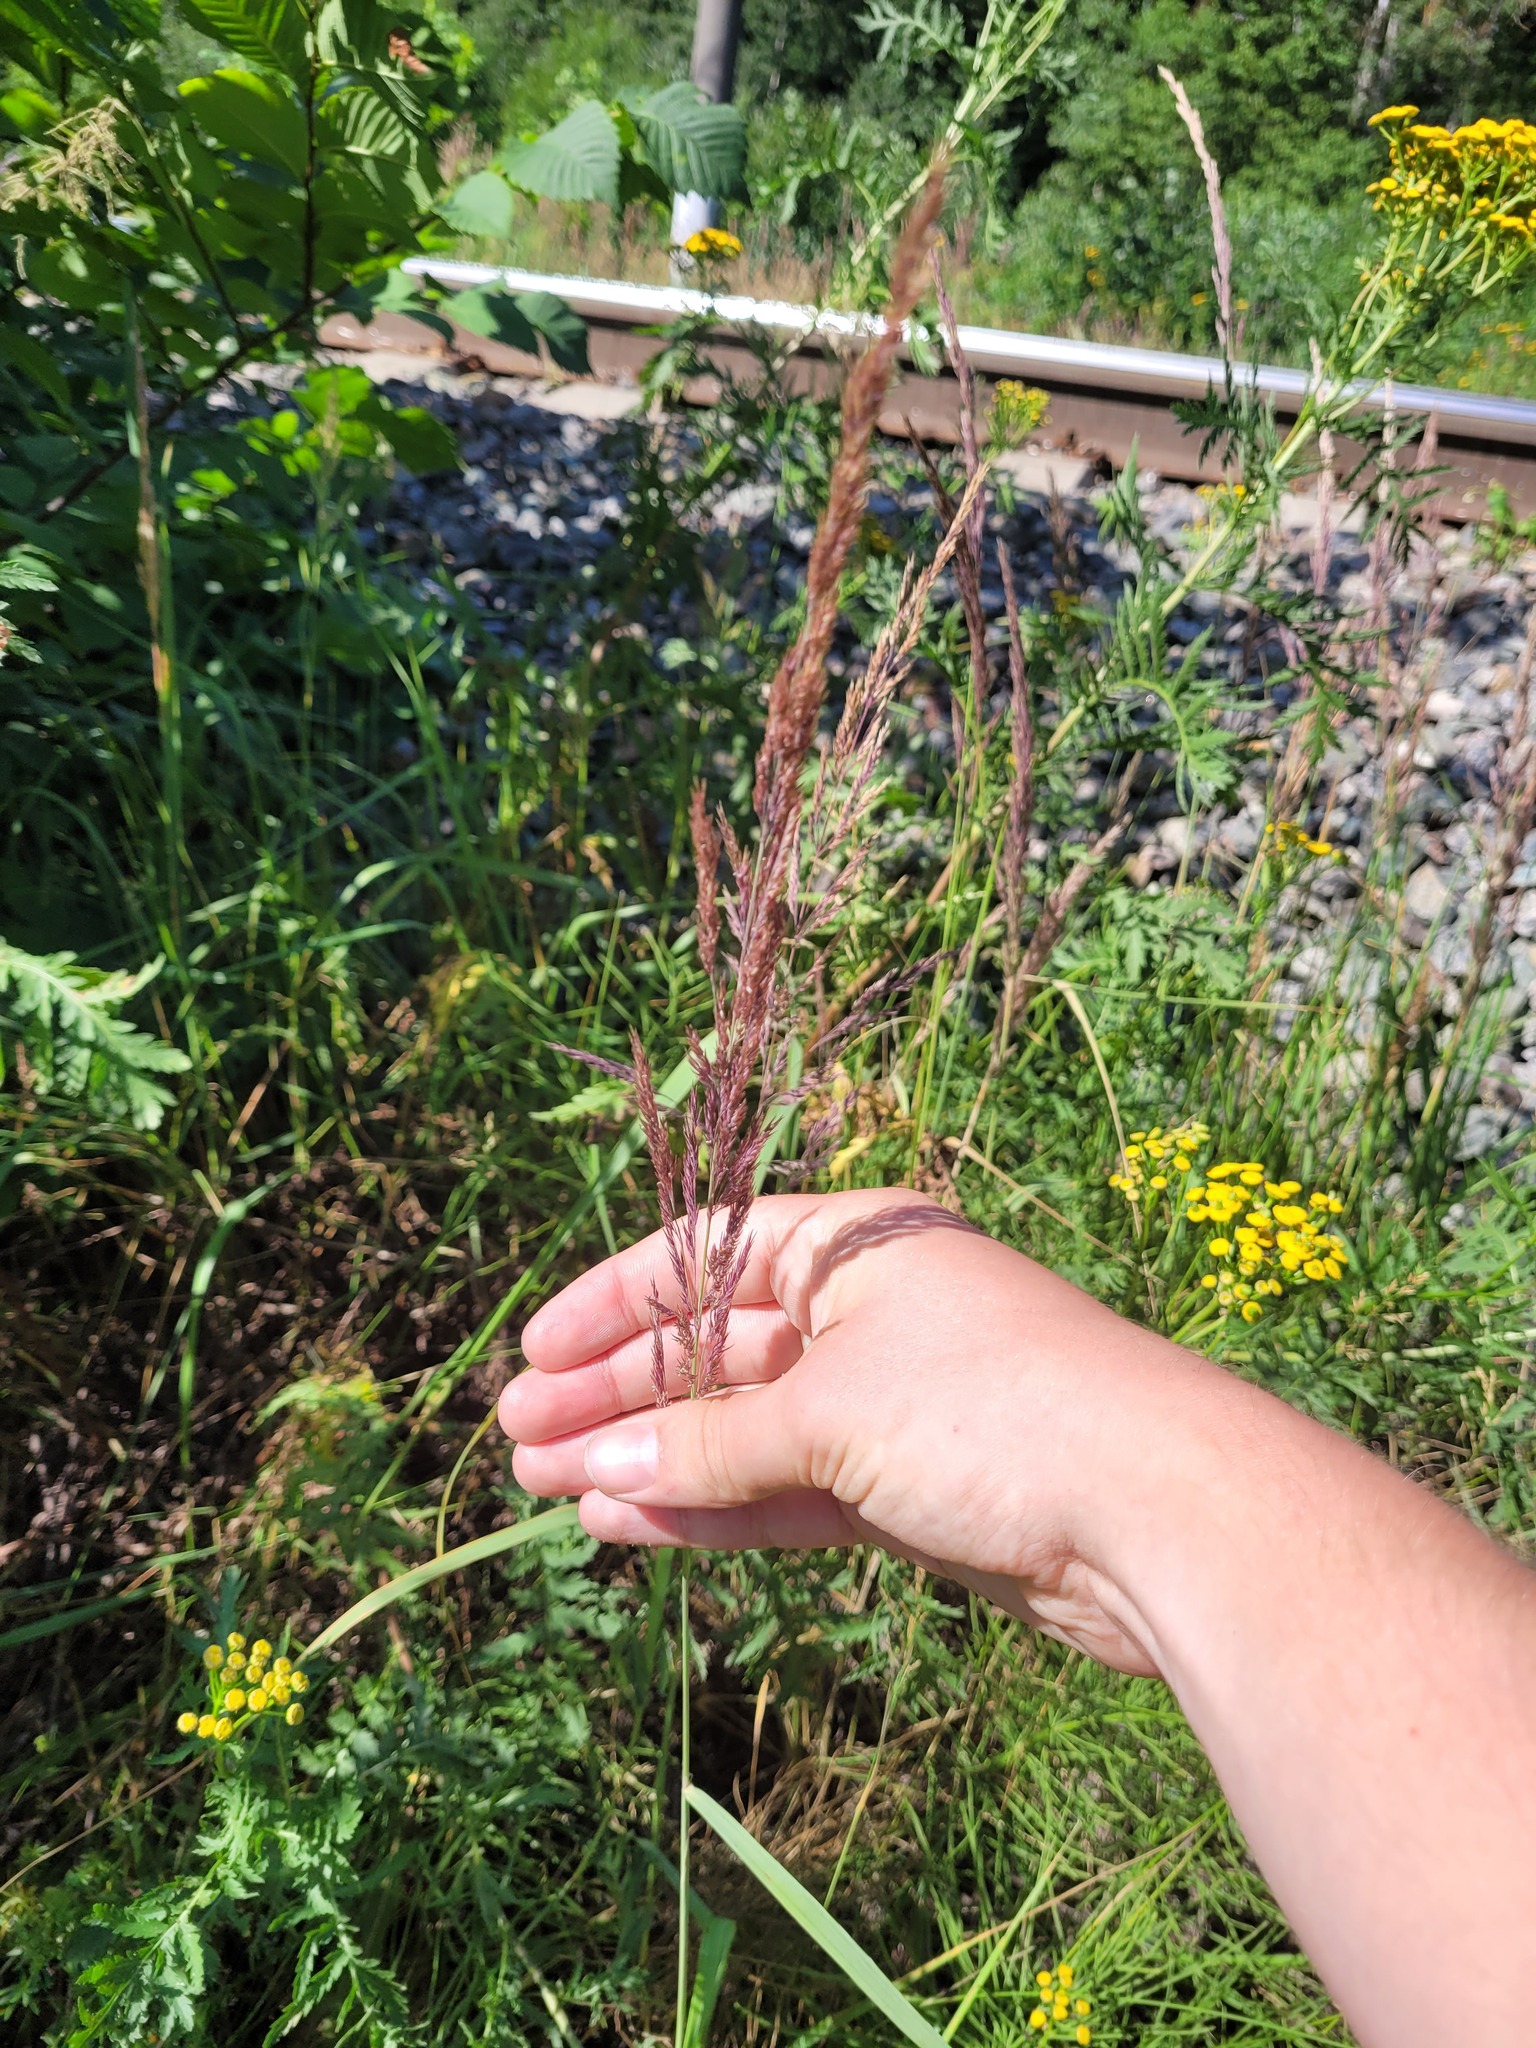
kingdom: Plantae
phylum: Tracheophyta
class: Liliopsida
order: Poales
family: Poaceae
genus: Calamagrostis
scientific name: Calamagrostis epigejos
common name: Wood small-reed
